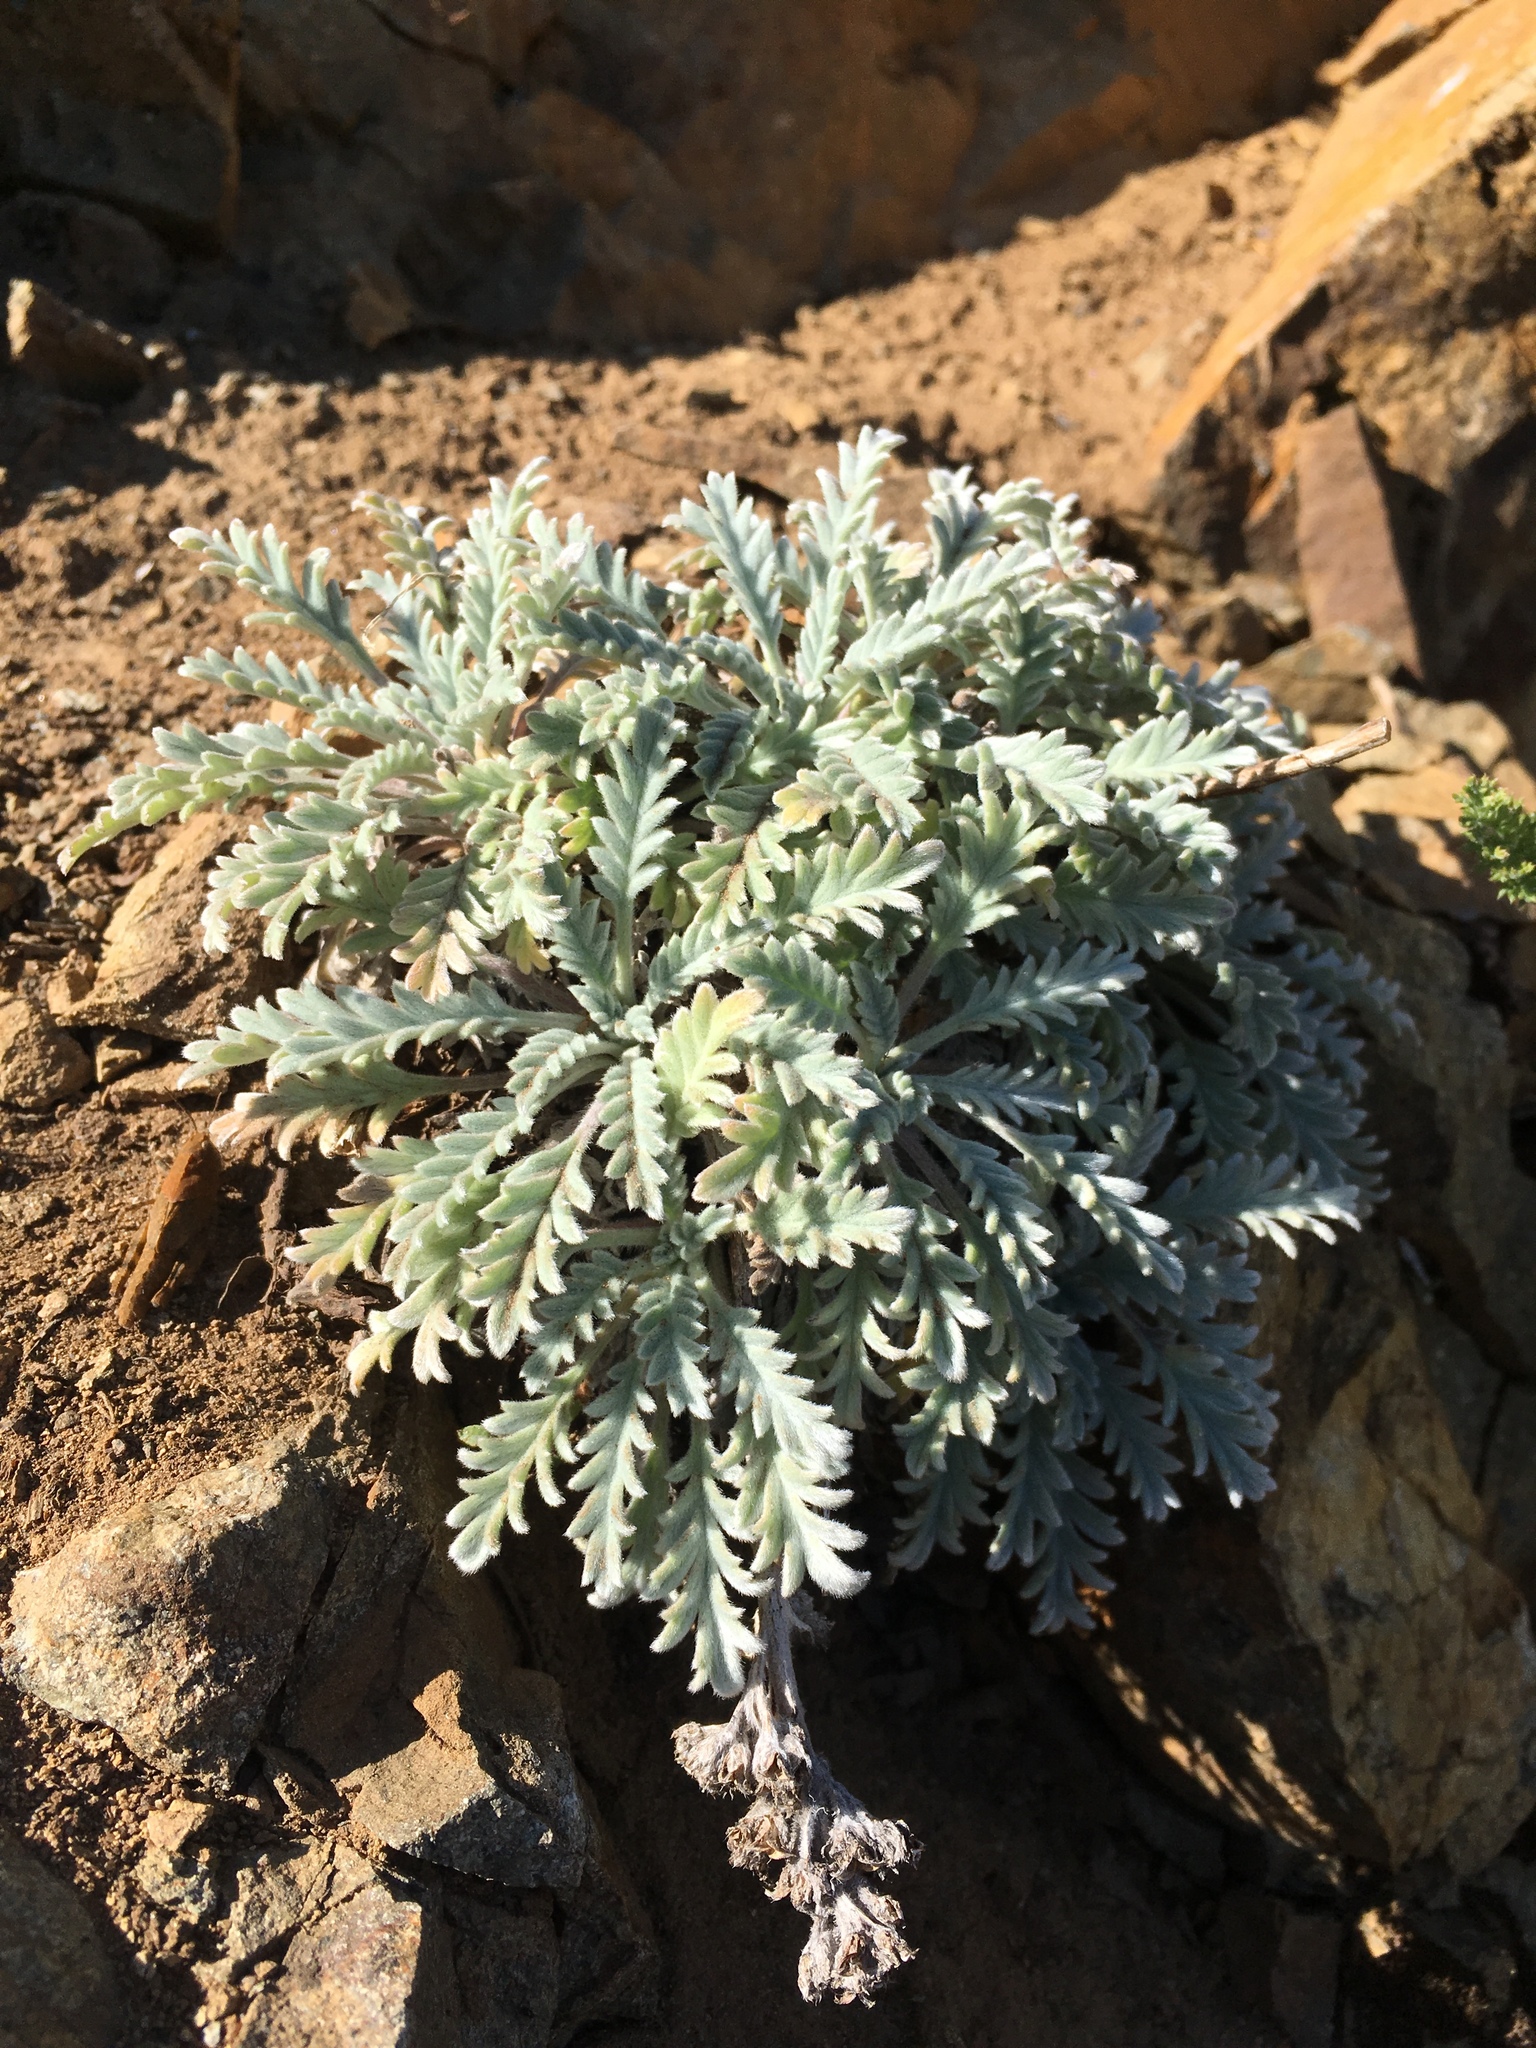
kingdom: Plantae
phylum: Tracheophyta
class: Magnoliopsida
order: Boraginales
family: Hydrophyllaceae
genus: Phacelia
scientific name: Phacelia sericea
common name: Silky phacelia
